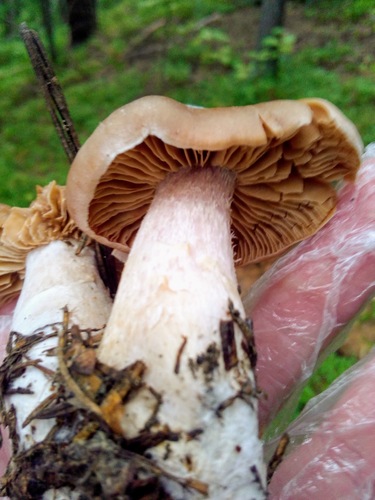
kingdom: Fungi
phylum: Basidiomycota
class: Agaricomycetes
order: Agaricales
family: Agaricaceae
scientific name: Agaricaceae
